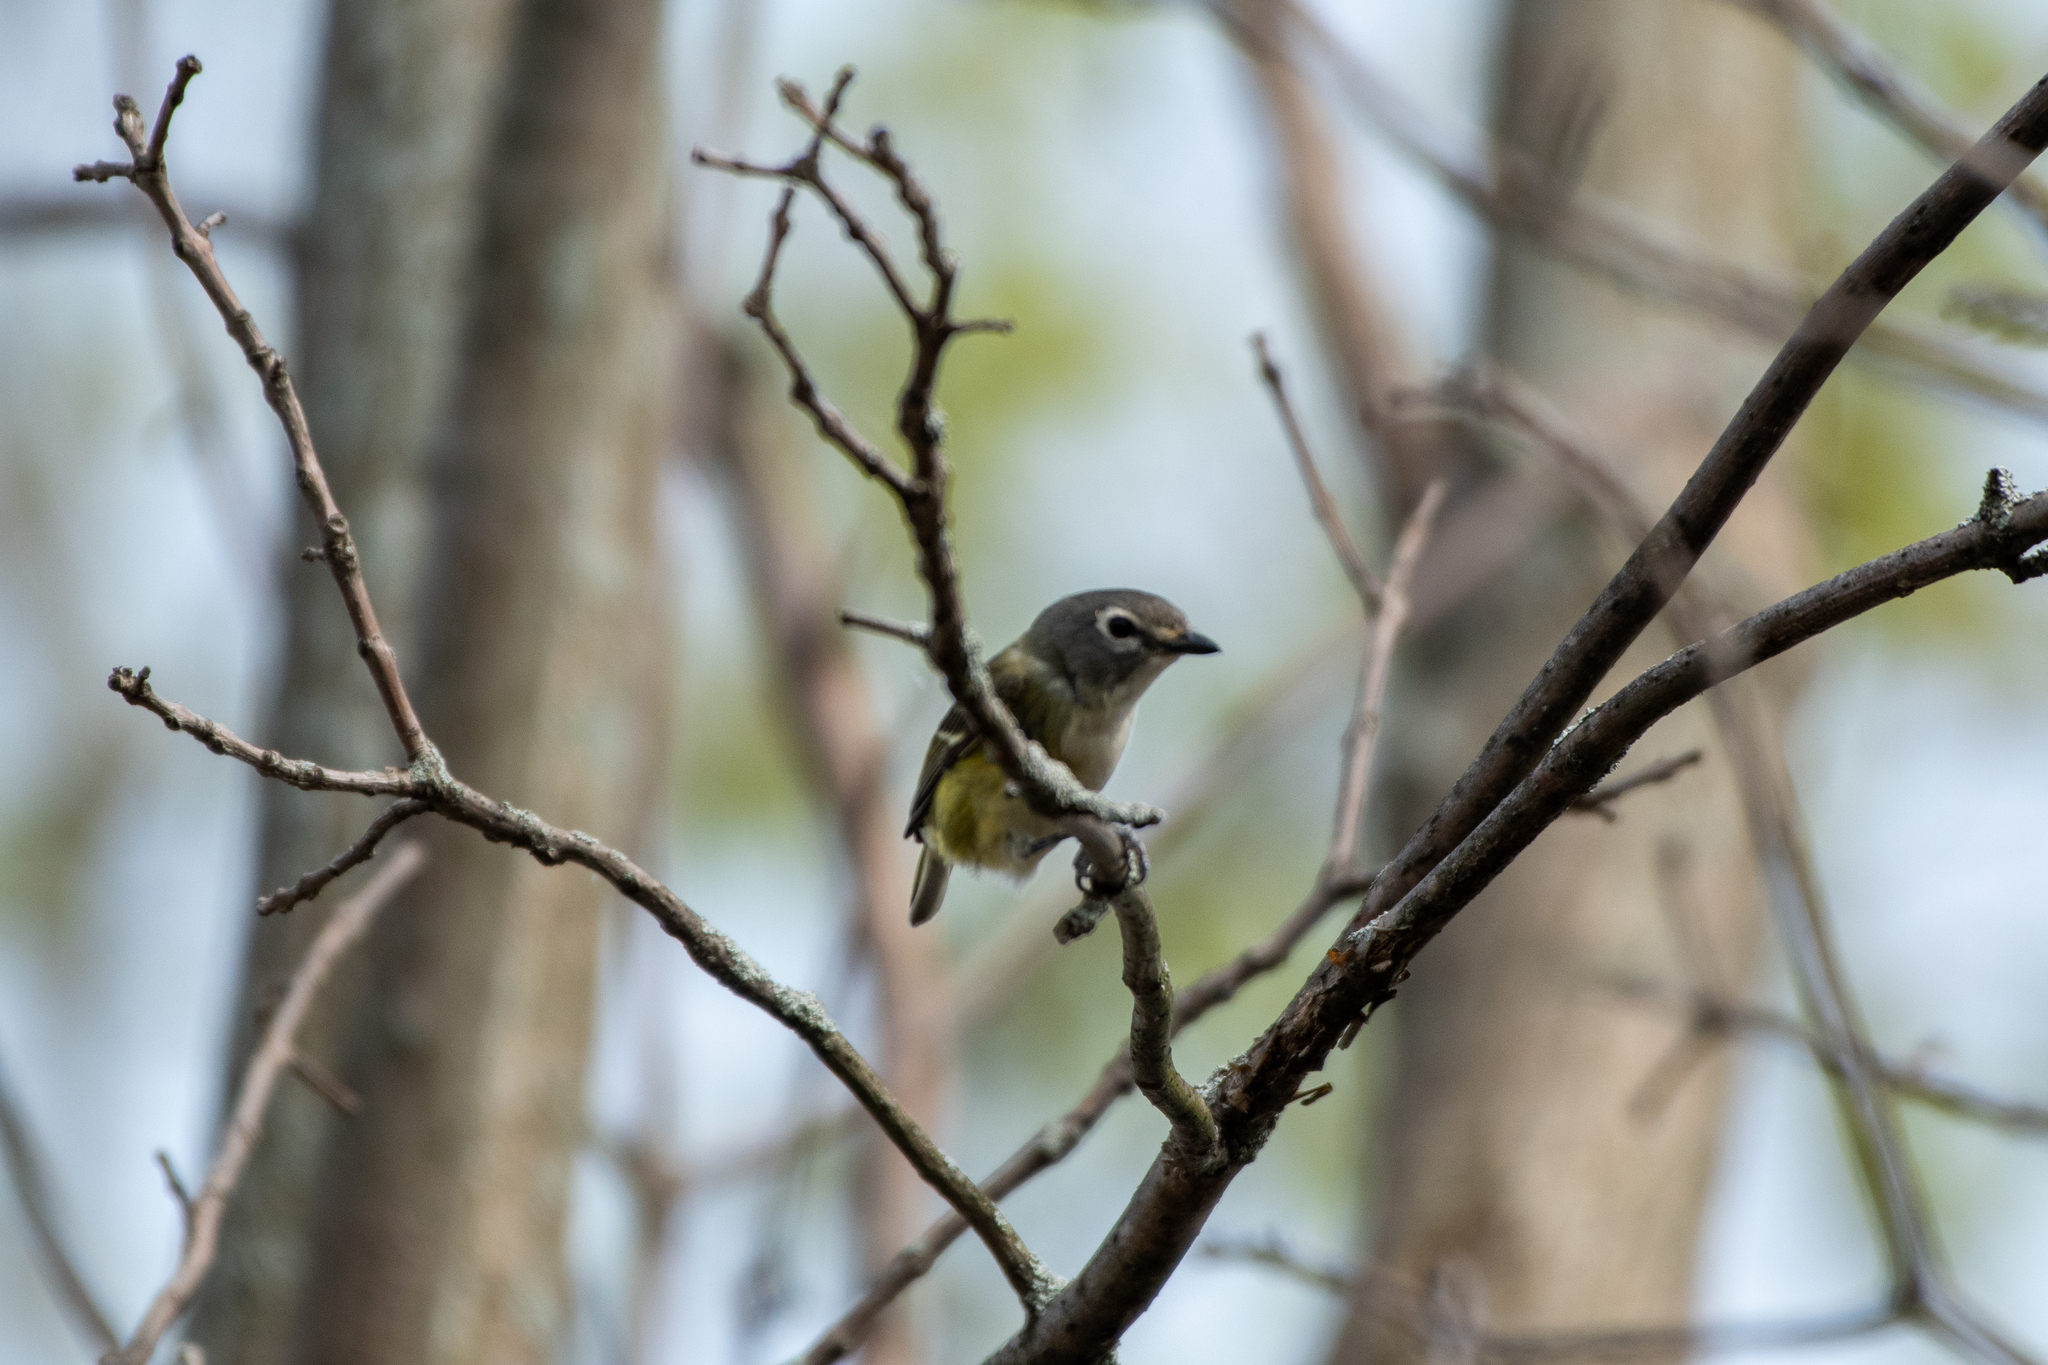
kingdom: Animalia
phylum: Chordata
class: Aves
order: Passeriformes
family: Vireonidae
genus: Vireo
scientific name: Vireo solitarius
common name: Blue-headed vireo
